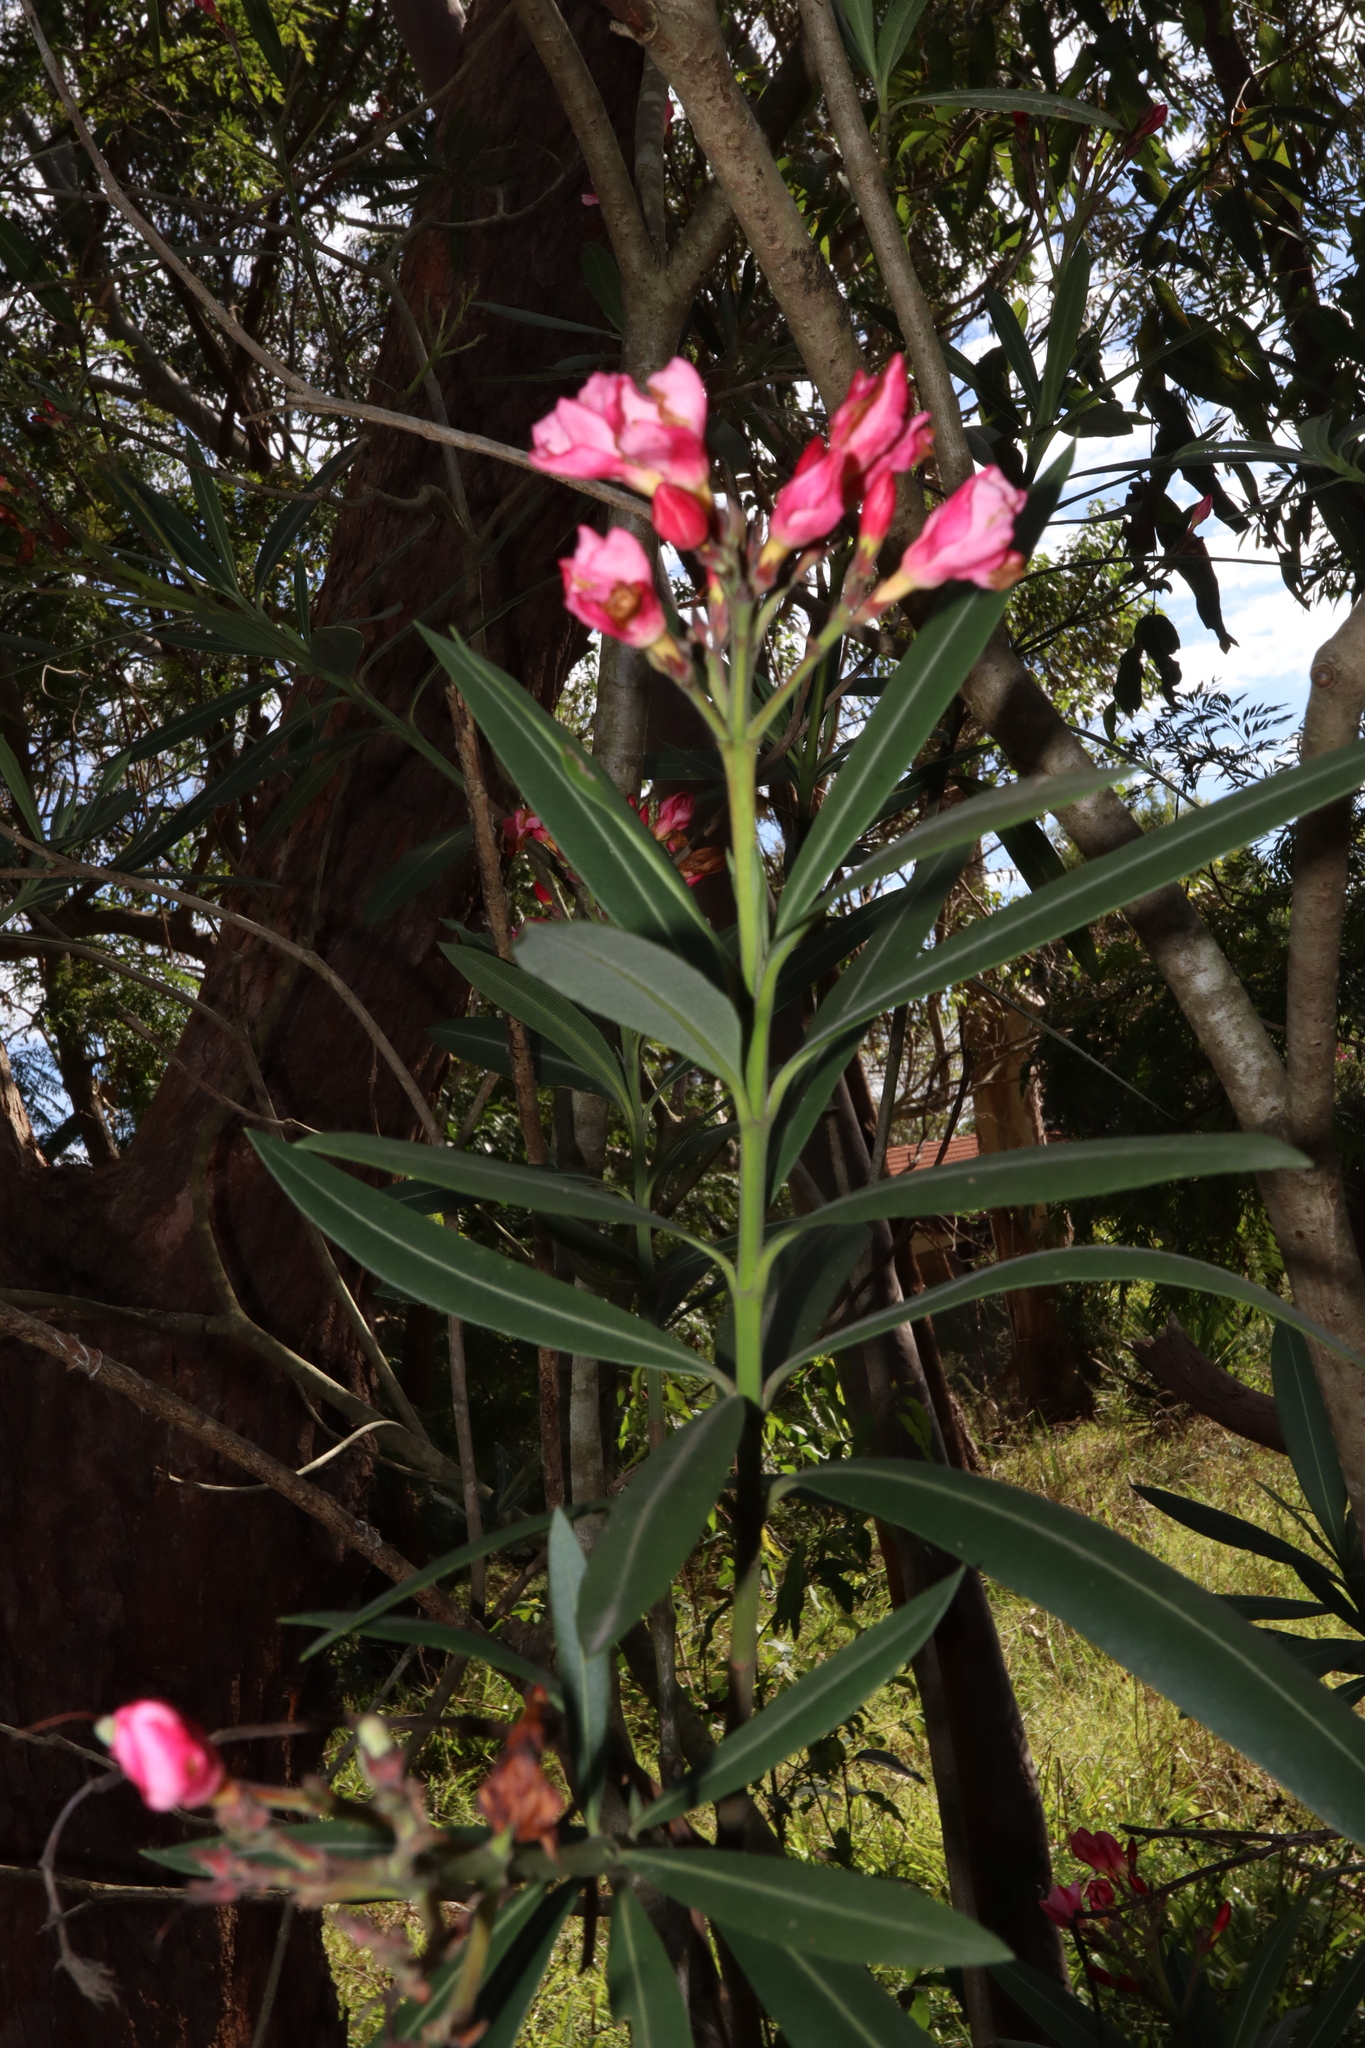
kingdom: Plantae
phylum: Tracheophyta
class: Magnoliopsida
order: Gentianales
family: Apocynaceae
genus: Nerium
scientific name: Nerium oleander
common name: Oleander
